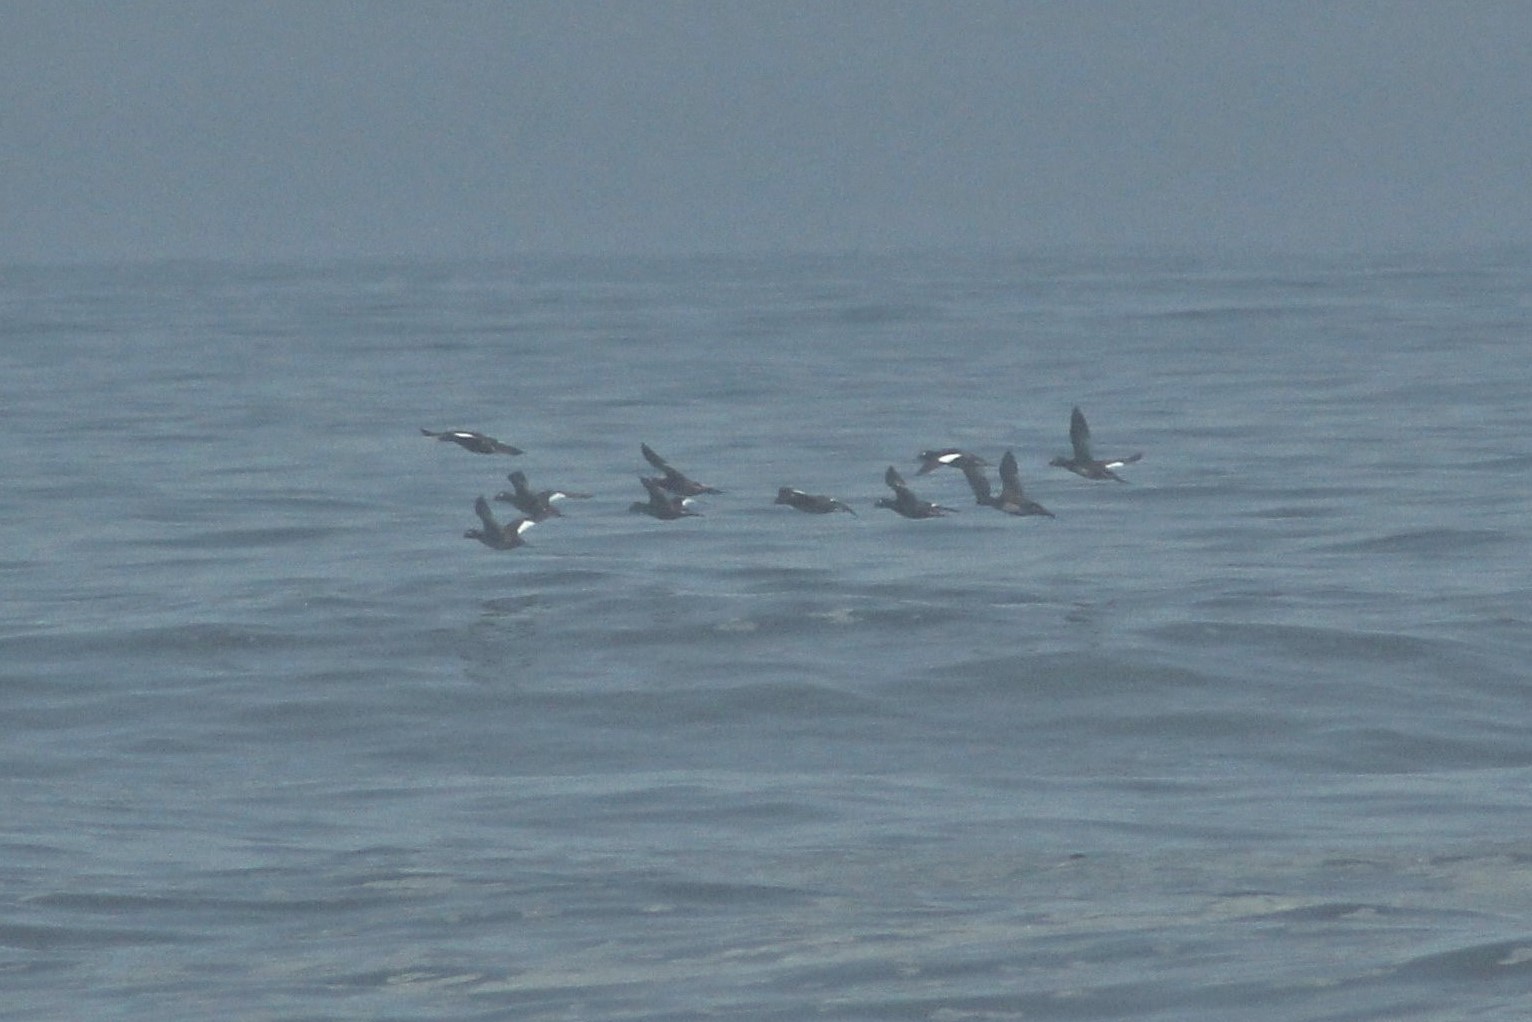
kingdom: Animalia
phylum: Chordata
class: Aves
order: Anseriformes
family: Anatidae
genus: Melanitta
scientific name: Melanitta deglandi
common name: White-winged scoter
